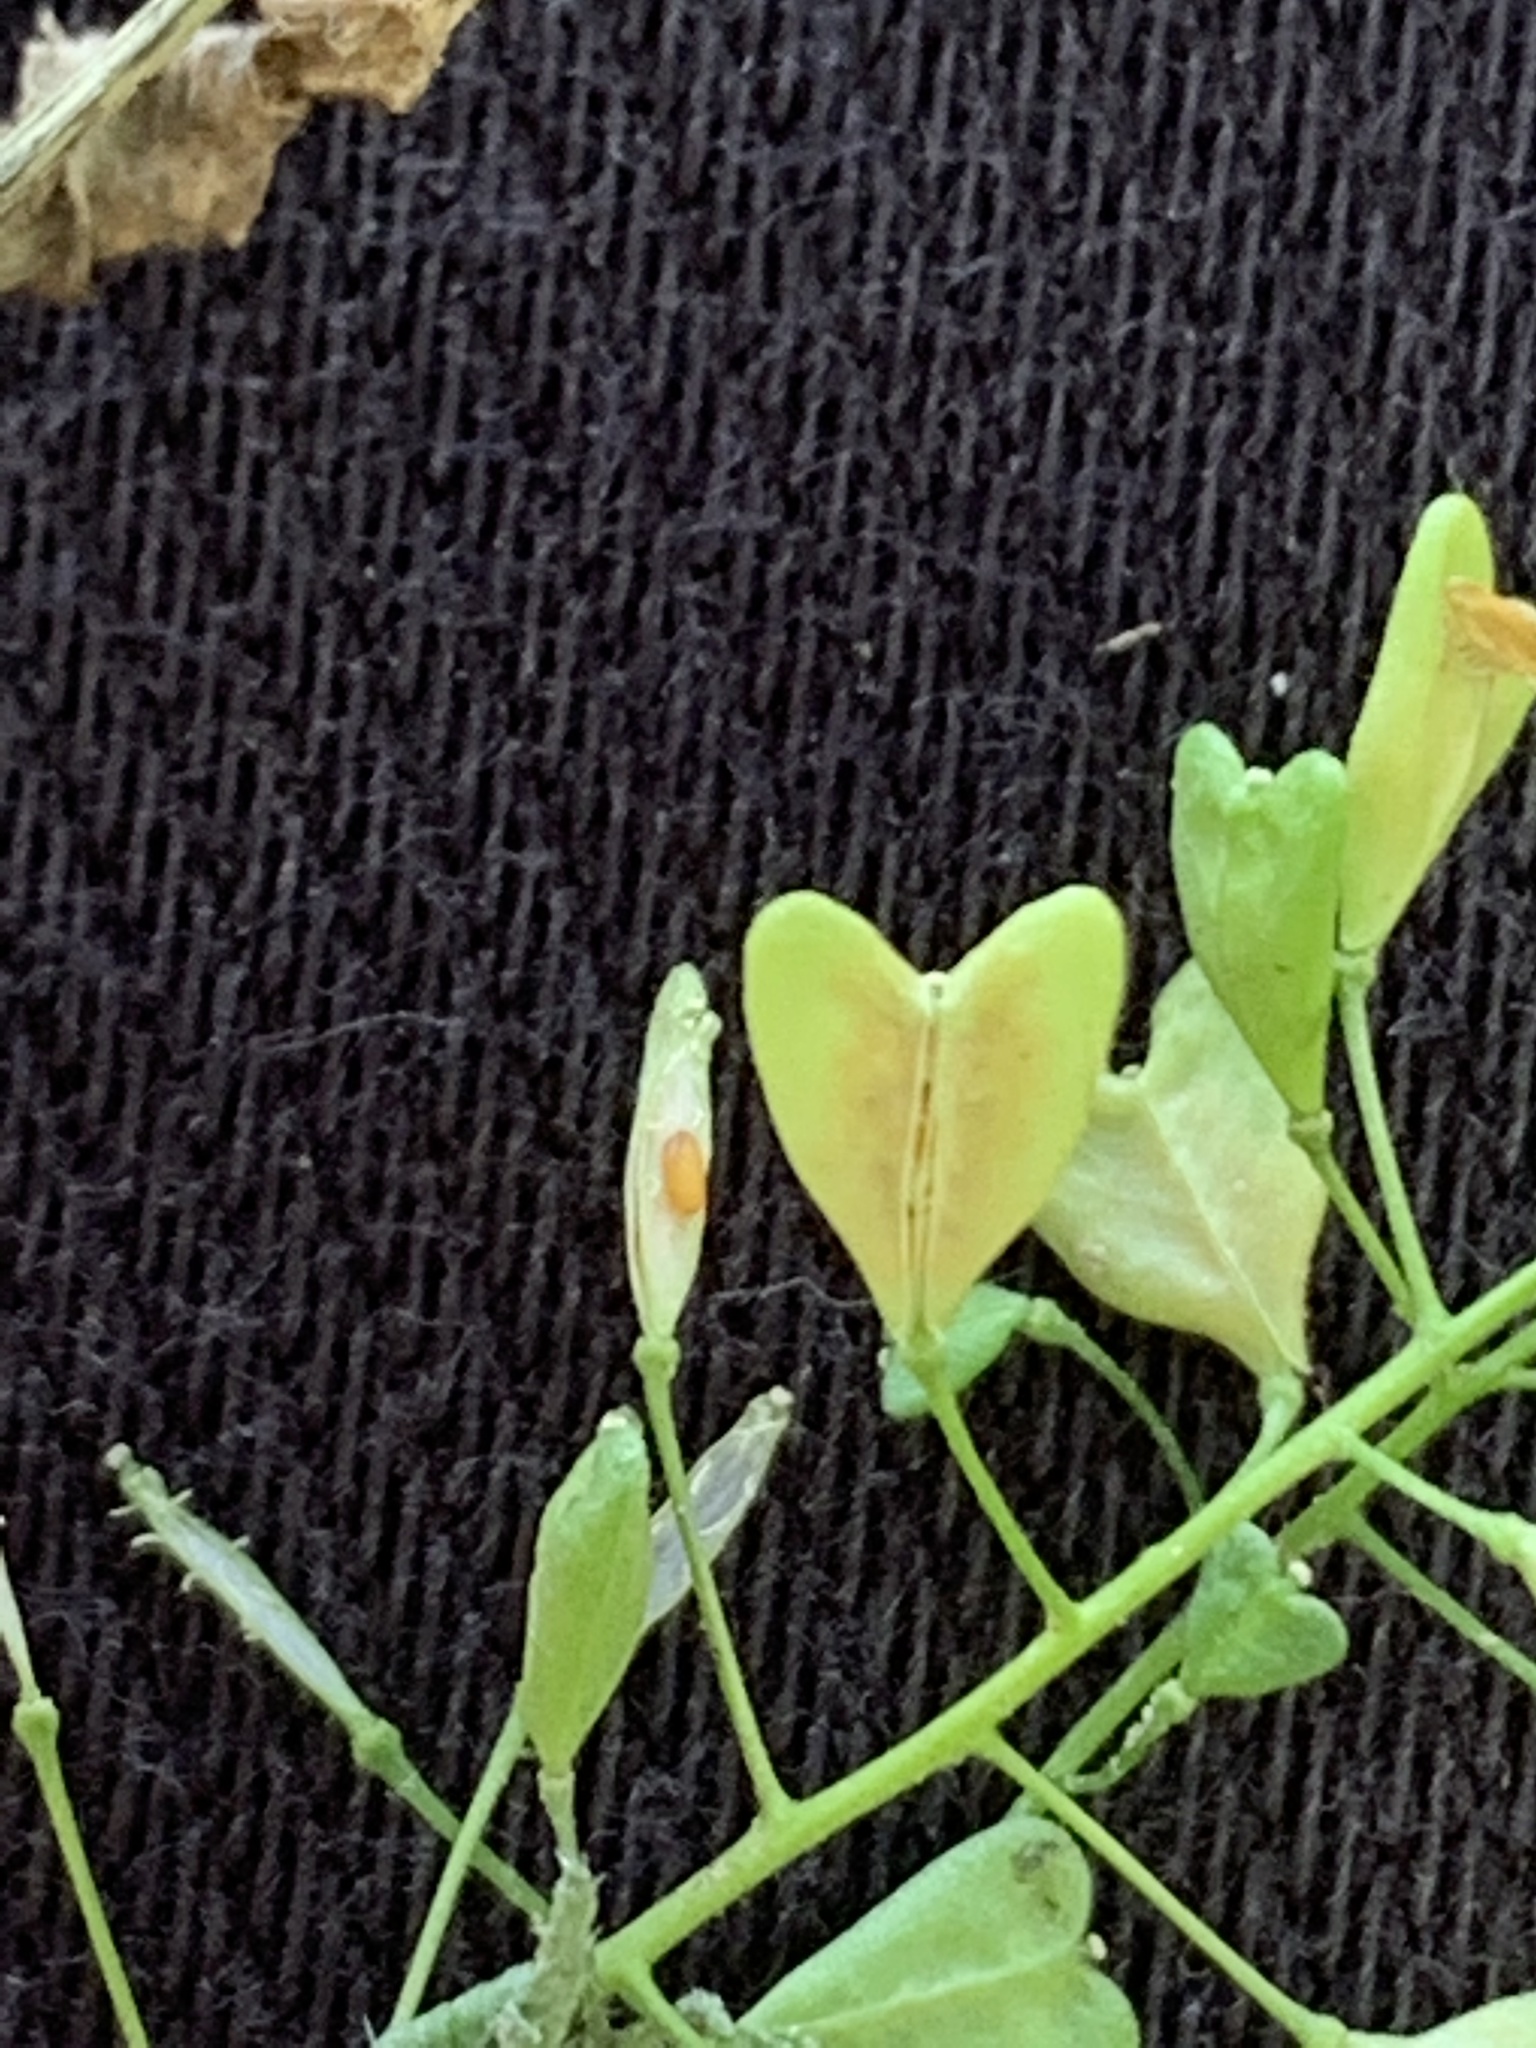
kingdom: Plantae
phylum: Tracheophyta
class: Magnoliopsida
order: Brassicales
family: Brassicaceae
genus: Capsella
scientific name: Capsella bursa-pastoris
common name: Shepherd's purse
